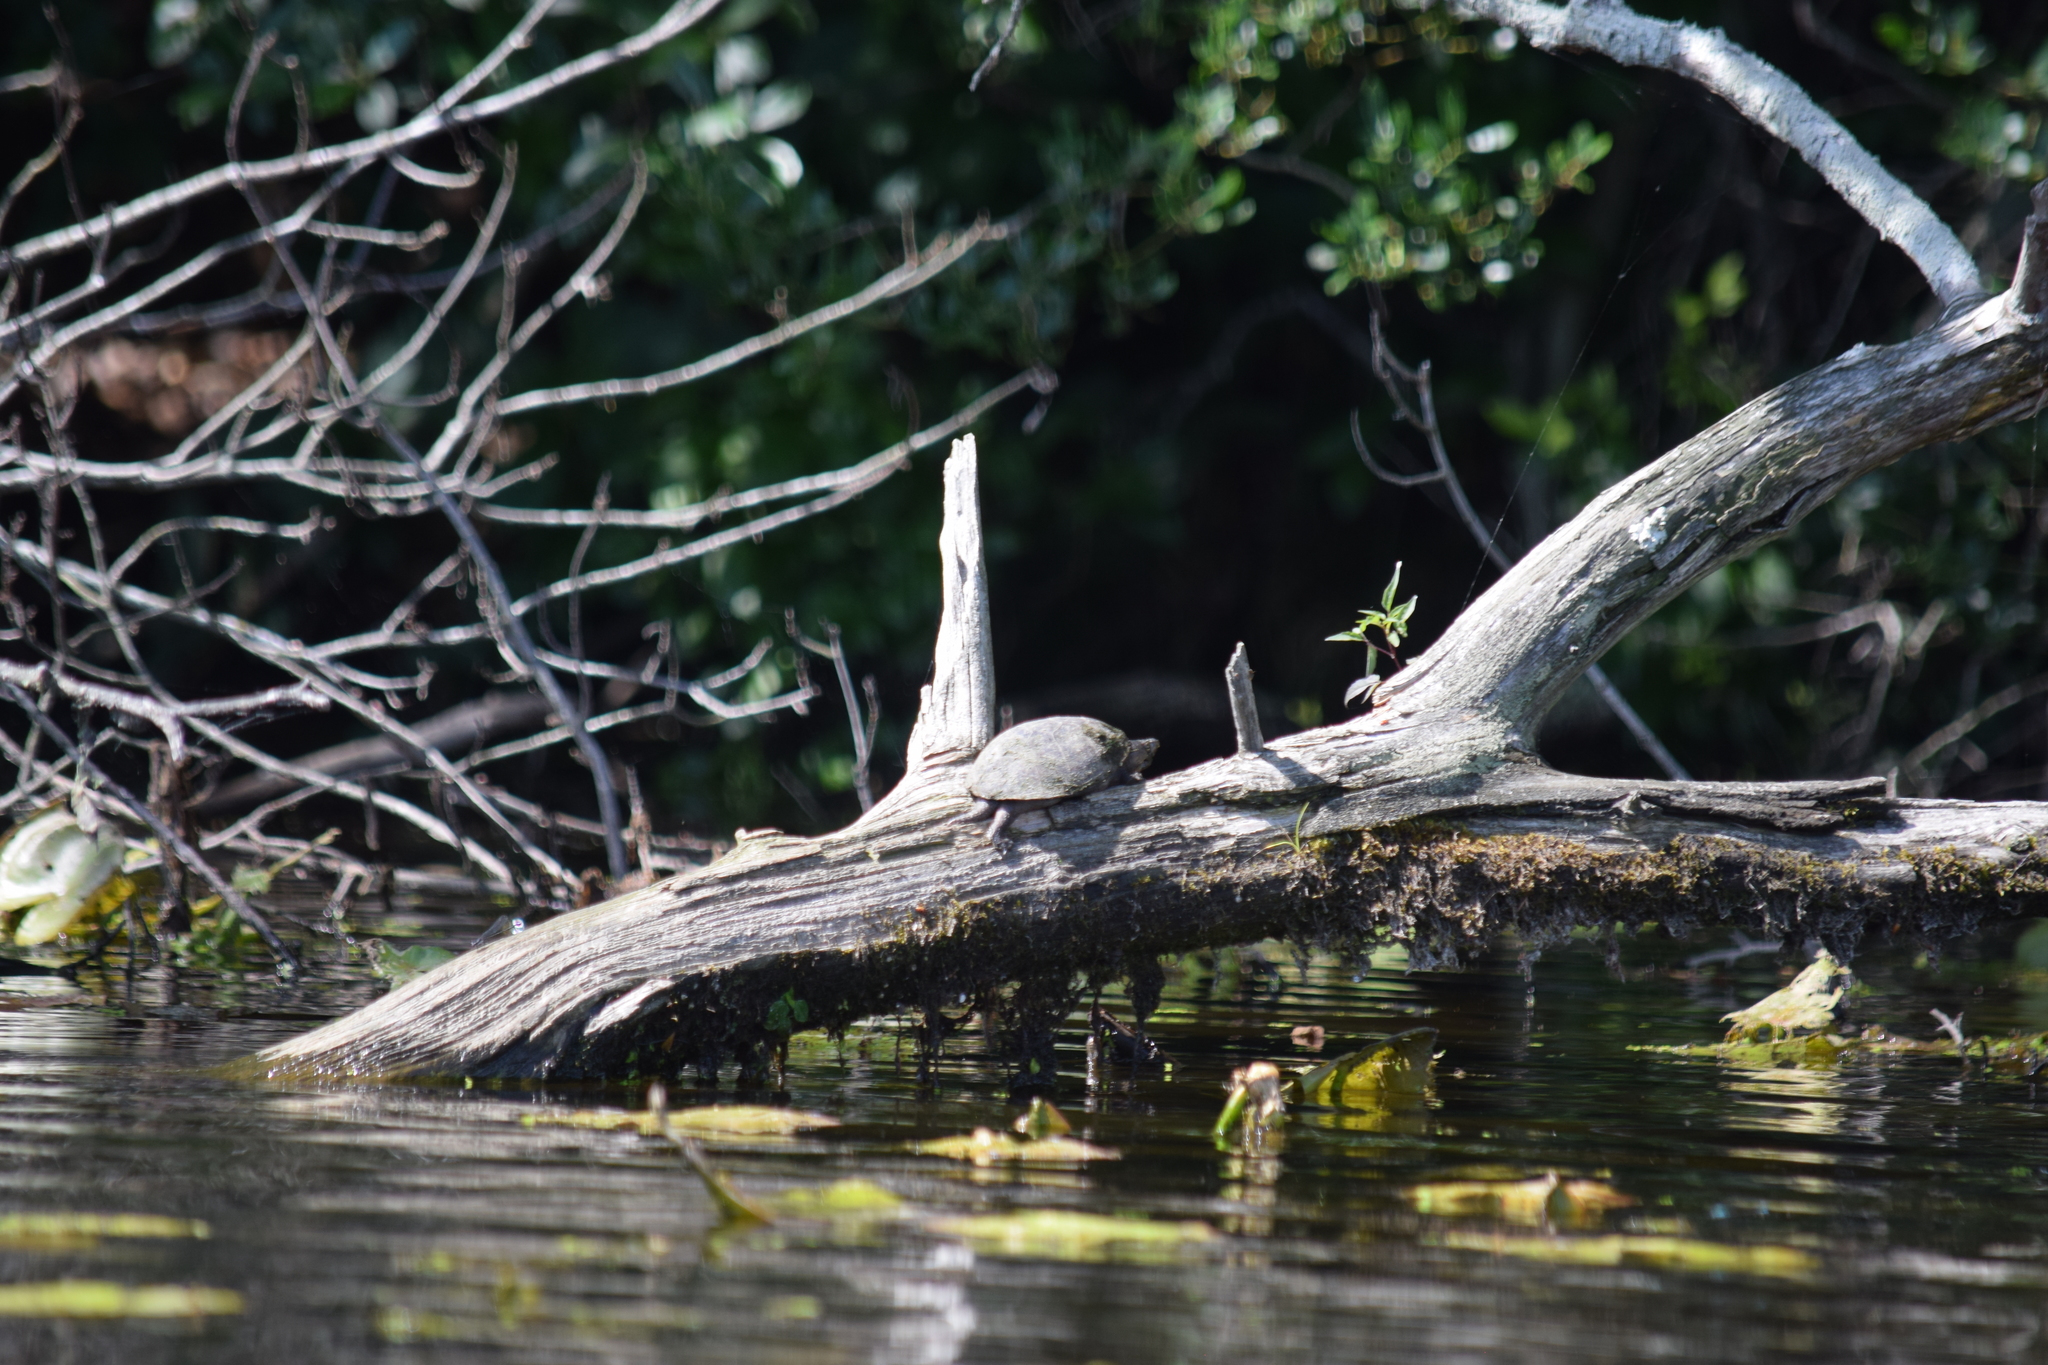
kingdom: Animalia
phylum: Chordata
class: Testudines
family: Kinosternidae
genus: Sternotherus
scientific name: Sternotherus odoratus
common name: Common musk turtle
